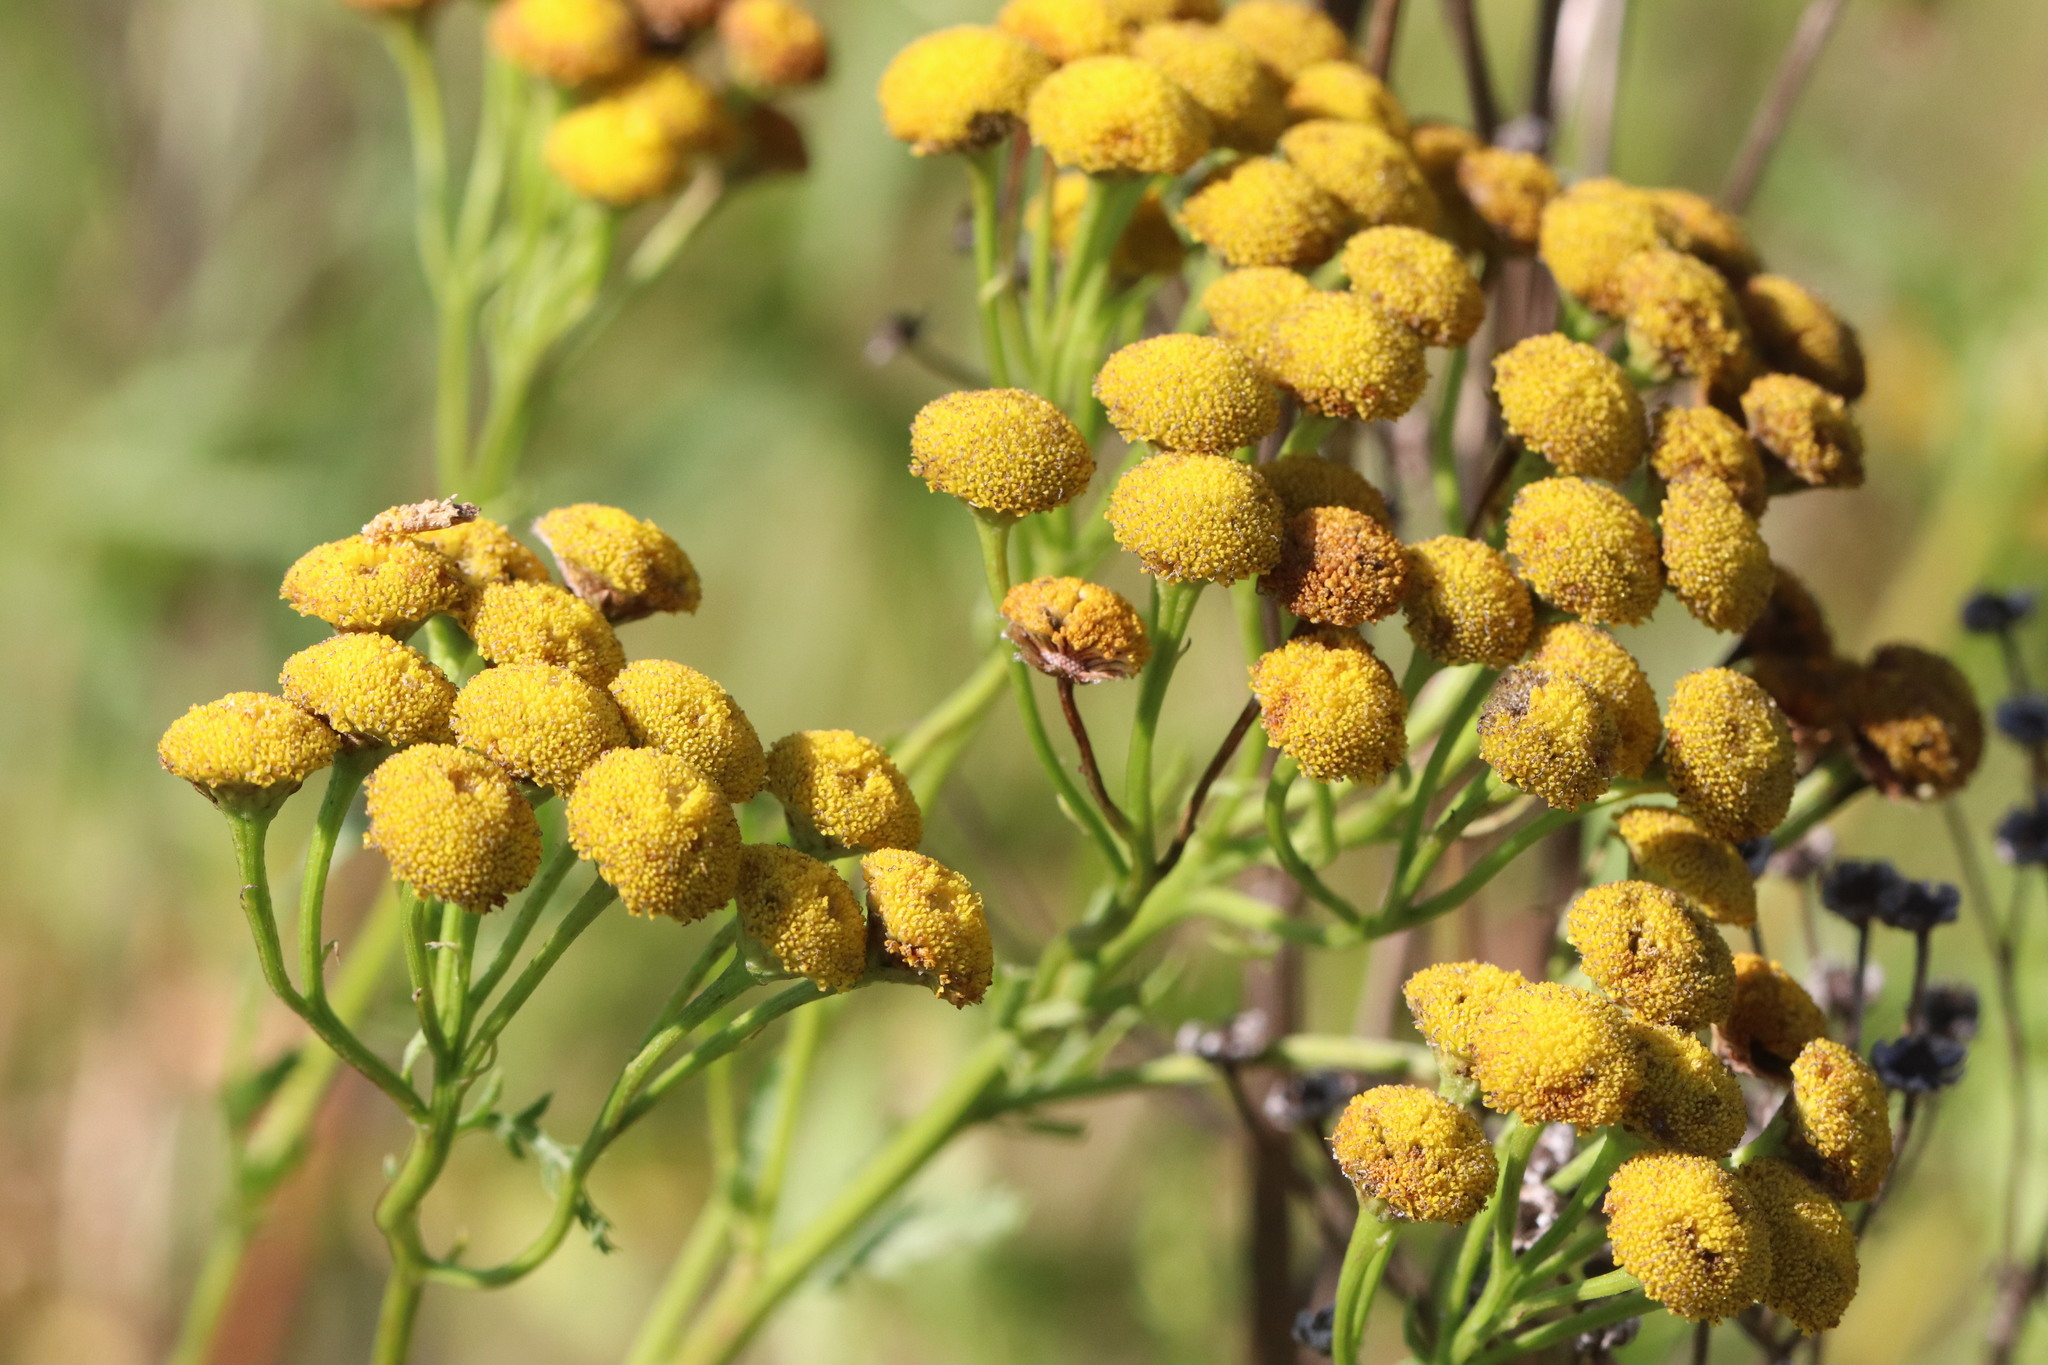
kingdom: Plantae
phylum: Tracheophyta
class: Magnoliopsida
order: Asterales
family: Asteraceae
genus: Tanacetum
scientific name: Tanacetum vulgare
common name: Common tansy
